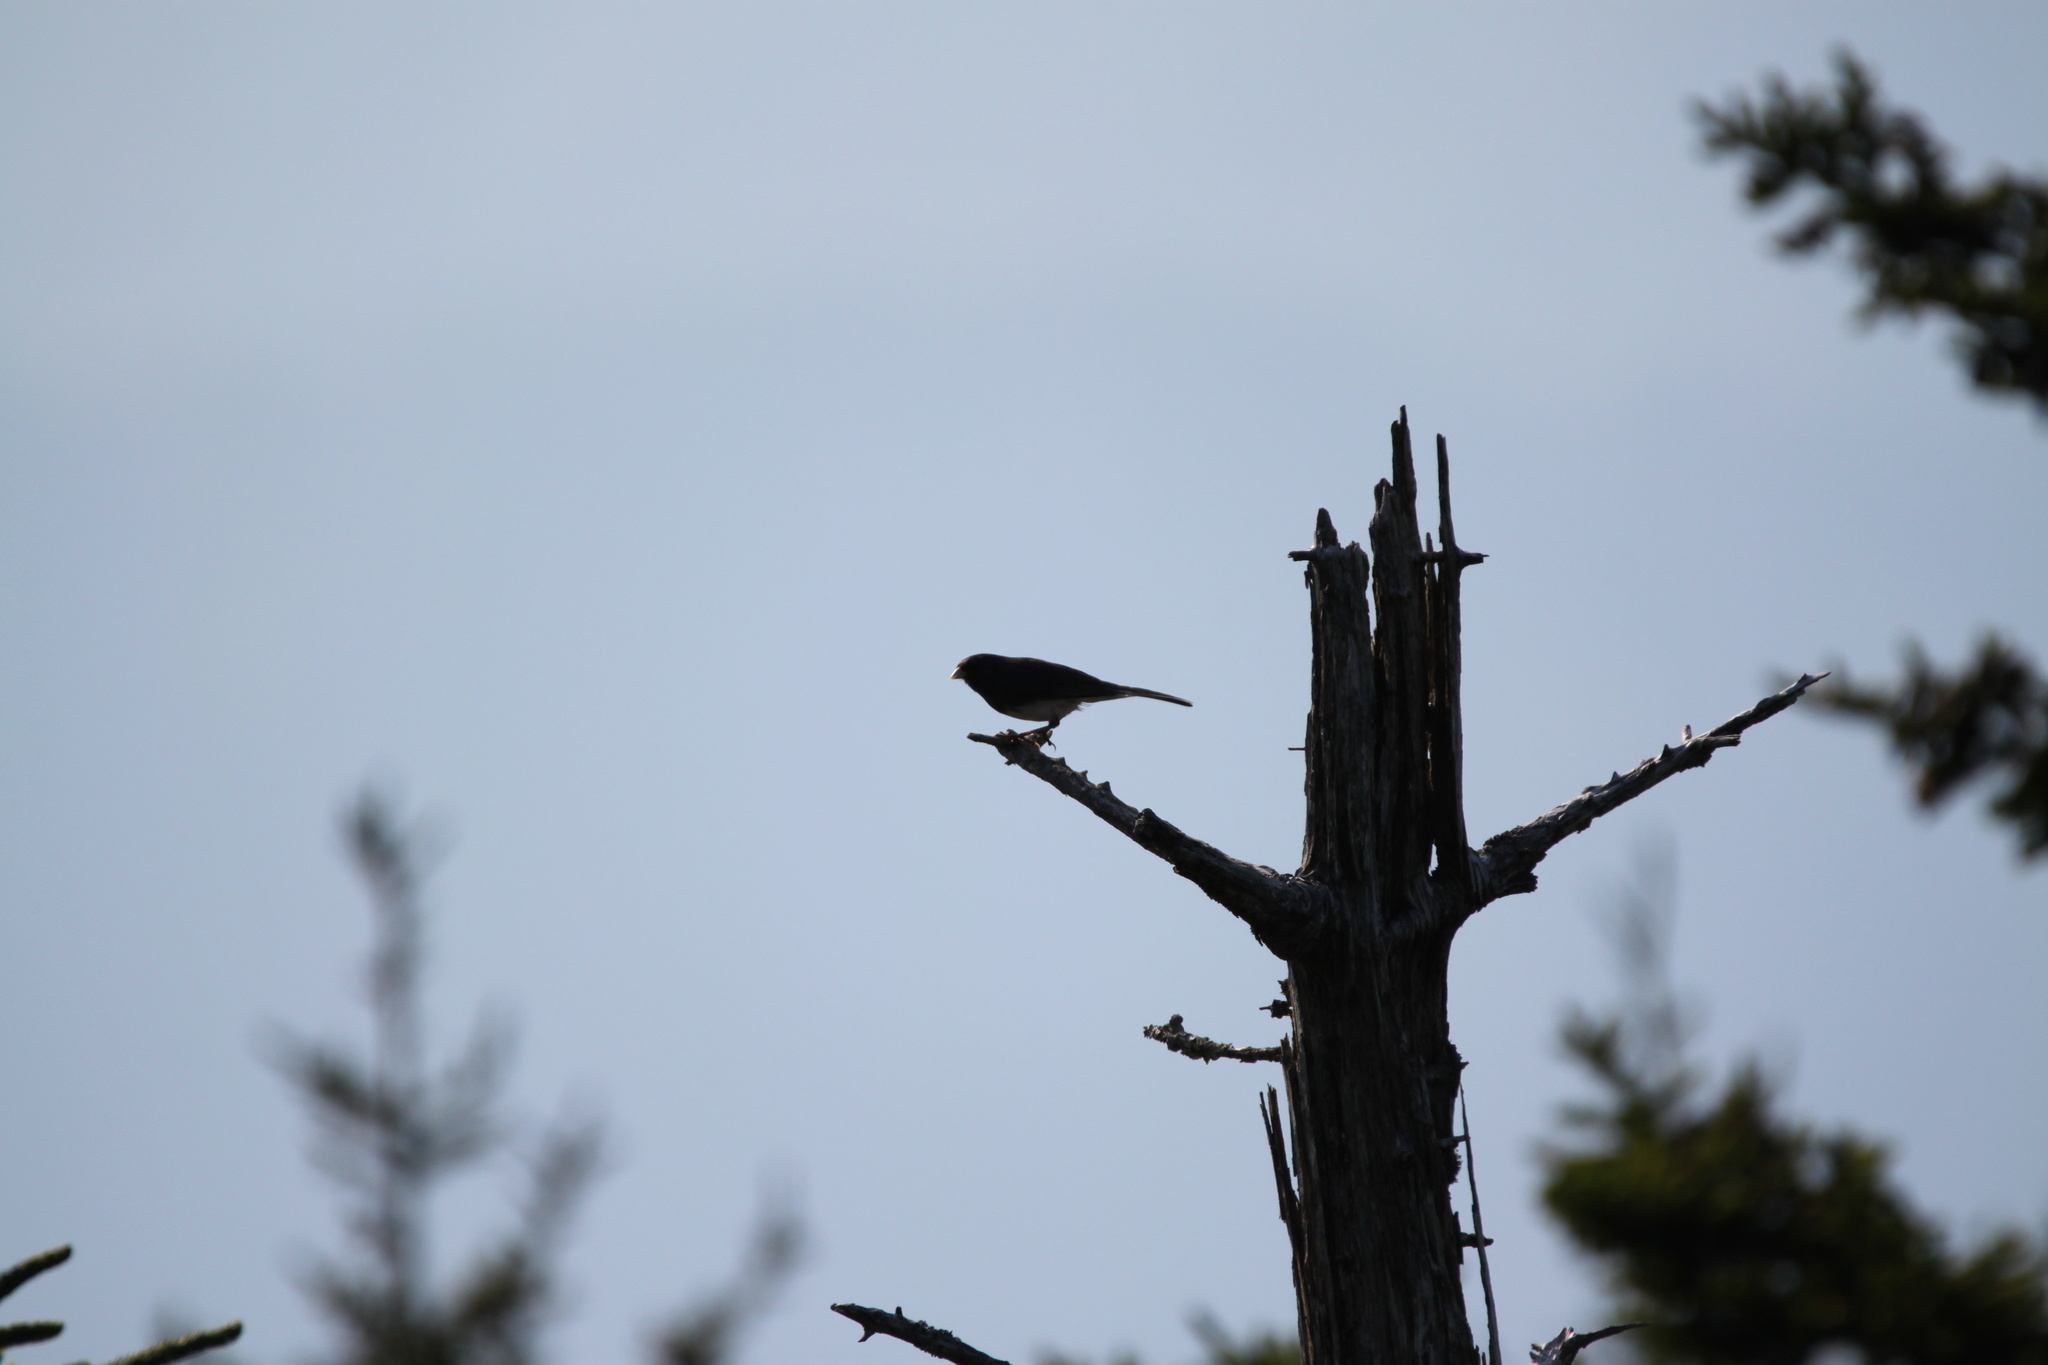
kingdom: Animalia
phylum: Chordata
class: Aves
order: Passeriformes
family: Passerellidae
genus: Junco
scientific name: Junco hyemalis
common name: Dark-eyed junco
